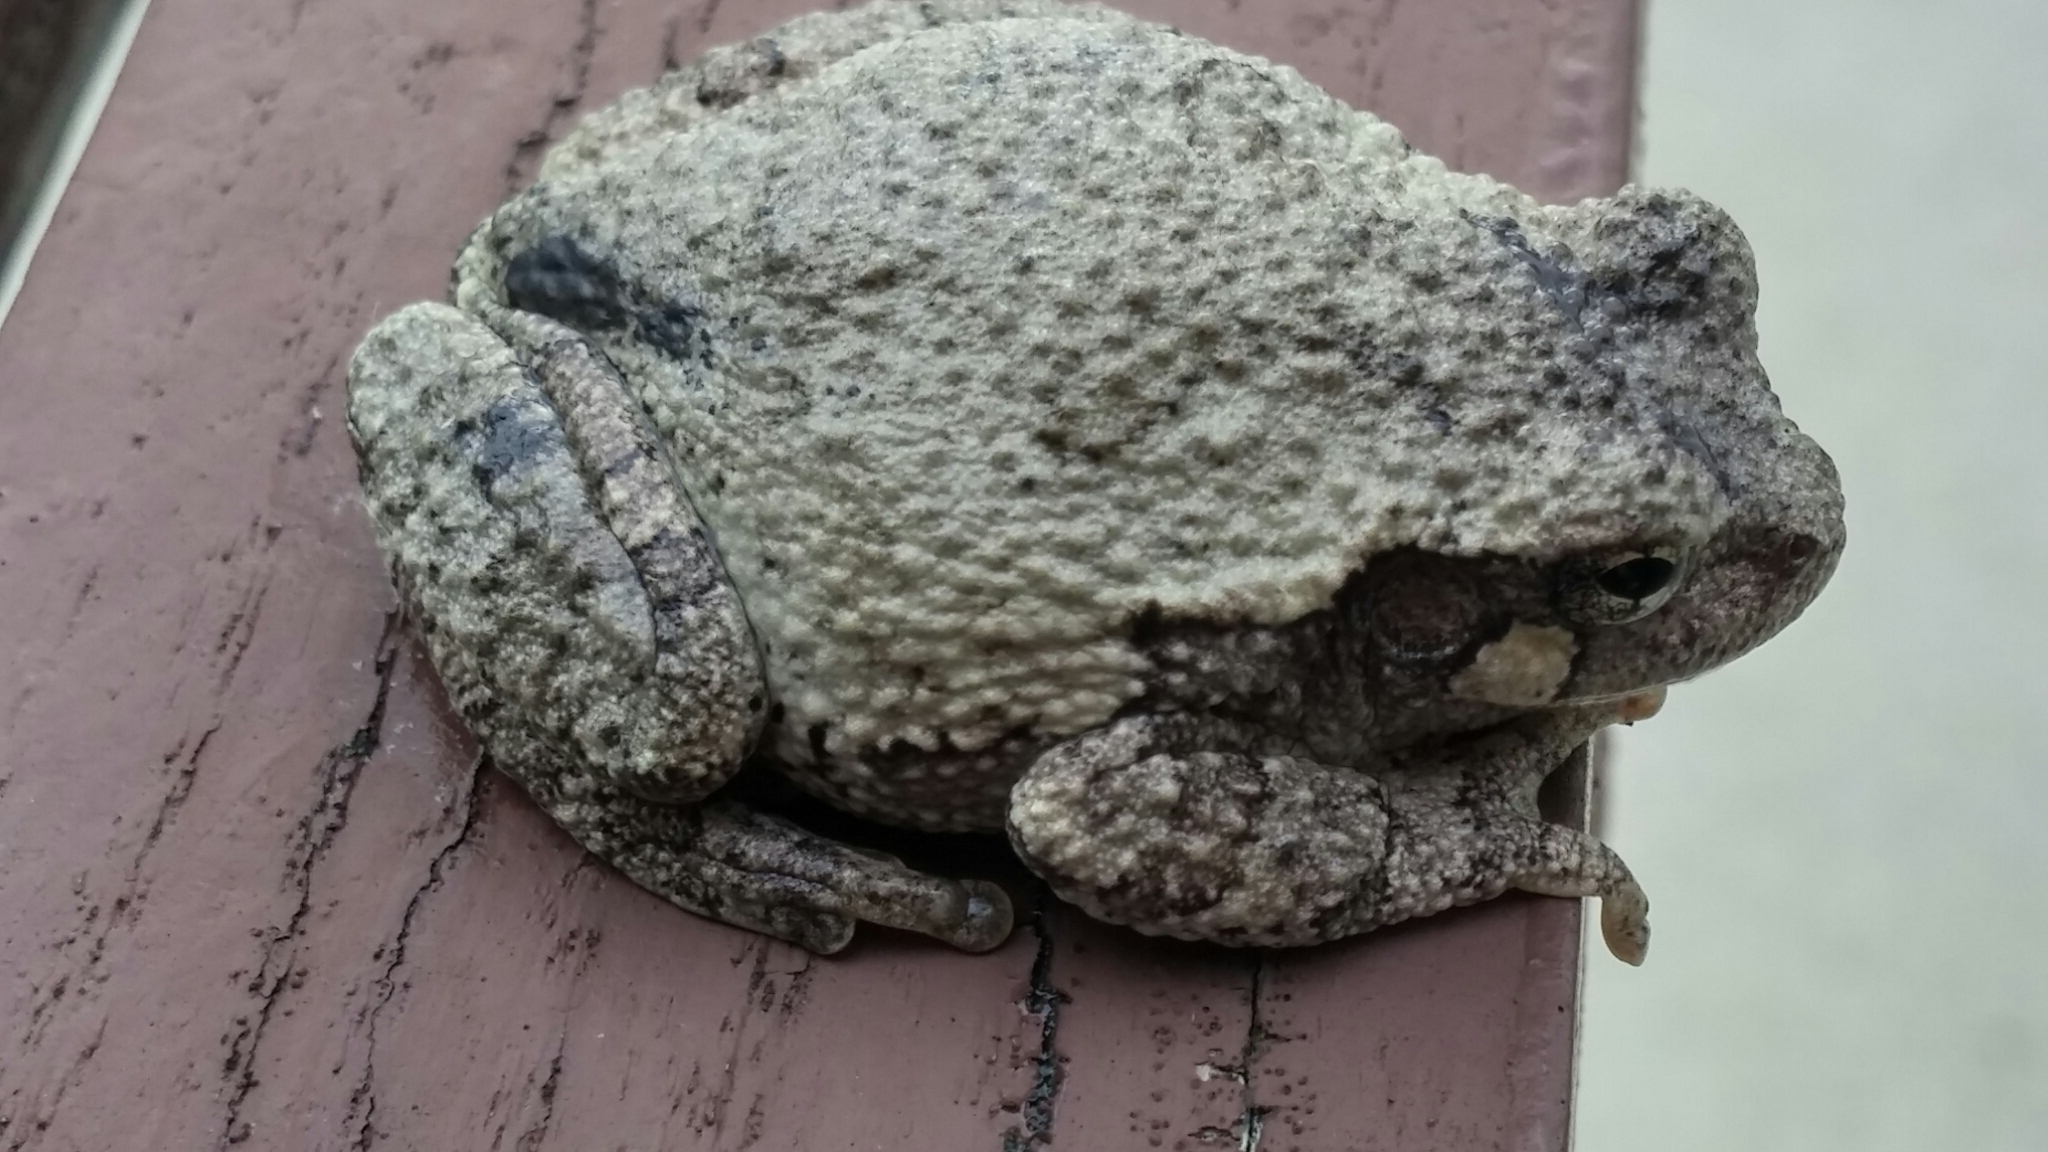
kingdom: Animalia
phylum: Chordata
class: Amphibia
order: Anura
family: Hylidae
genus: Hyla
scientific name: Hyla
